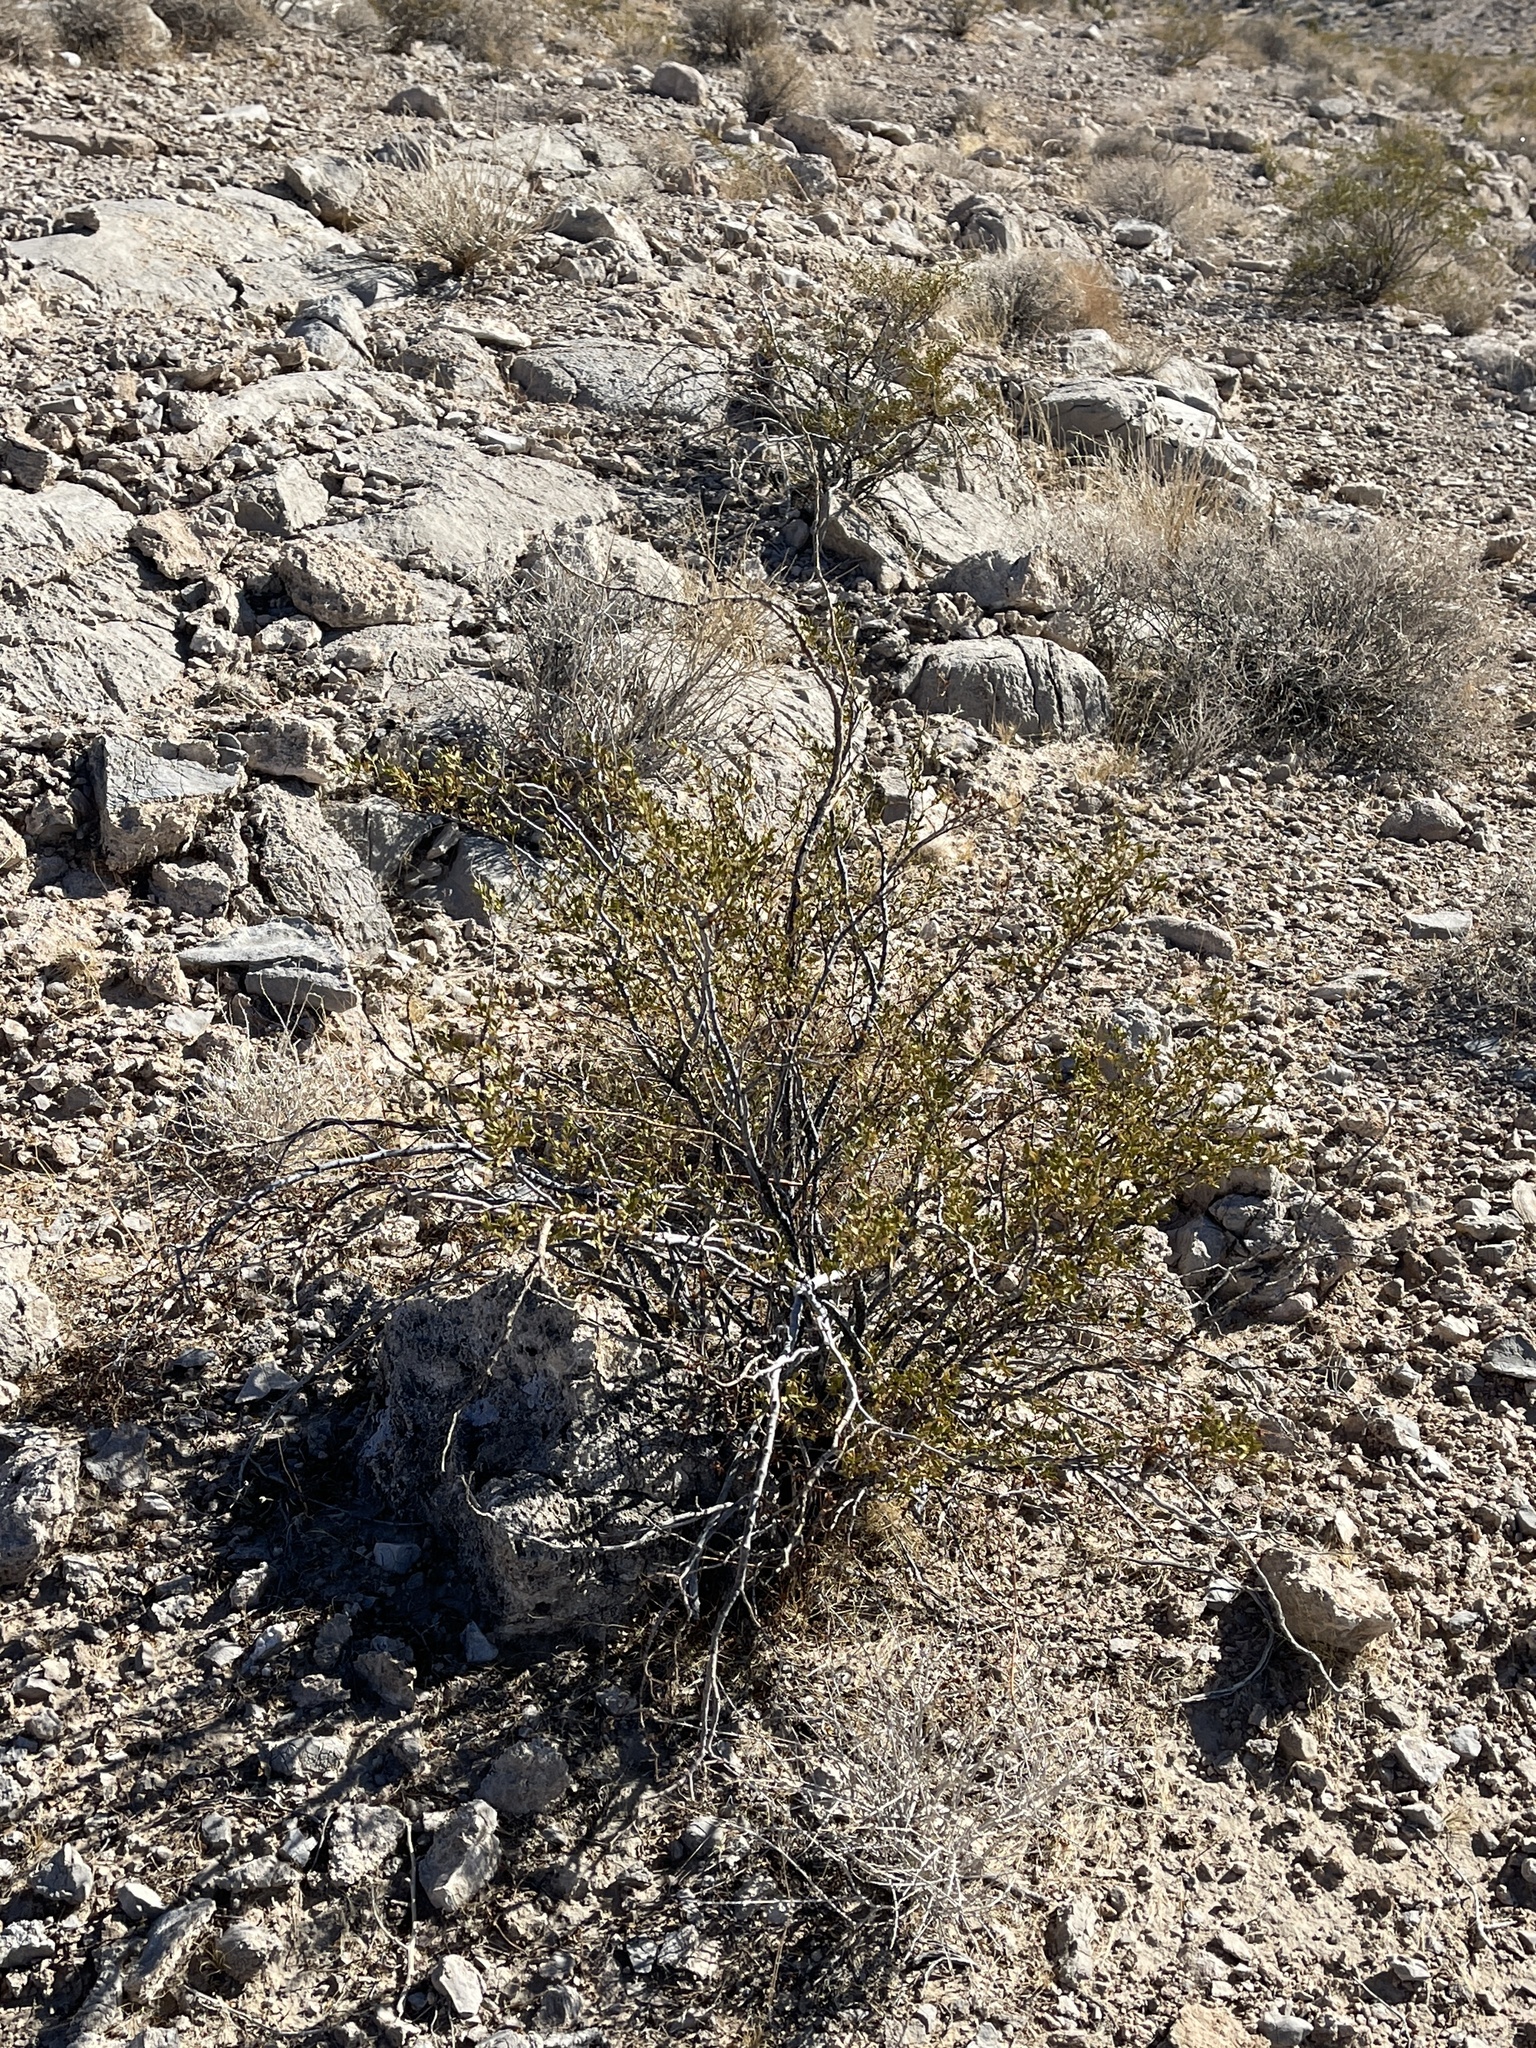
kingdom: Plantae
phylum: Tracheophyta
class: Magnoliopsida
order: Zygophyllales
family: Zygophyllaceae
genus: Larrea
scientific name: Larrea tridentata
